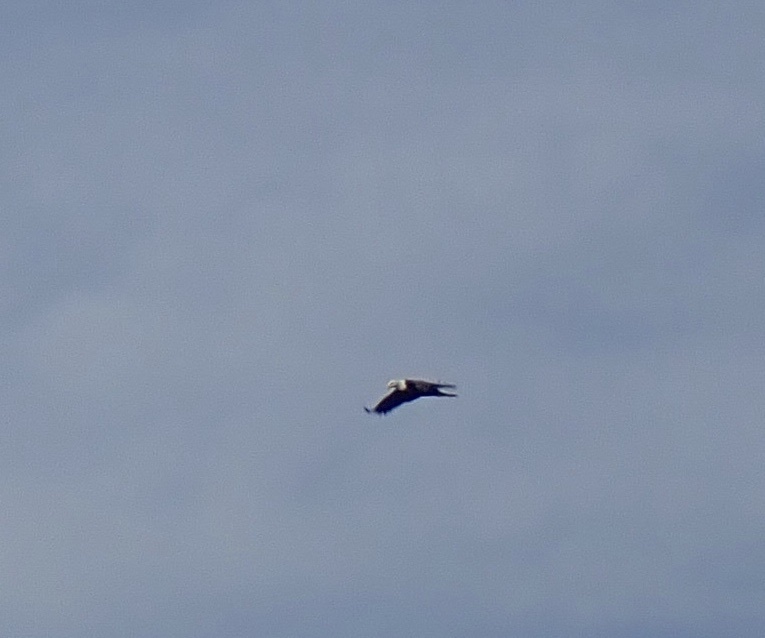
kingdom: Animalia
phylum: Chordata
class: Aves
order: Accipitriformes
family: Accipitridae
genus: Haliaeetus
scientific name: Haliaeetus leucocephalus
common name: Bald eagle
